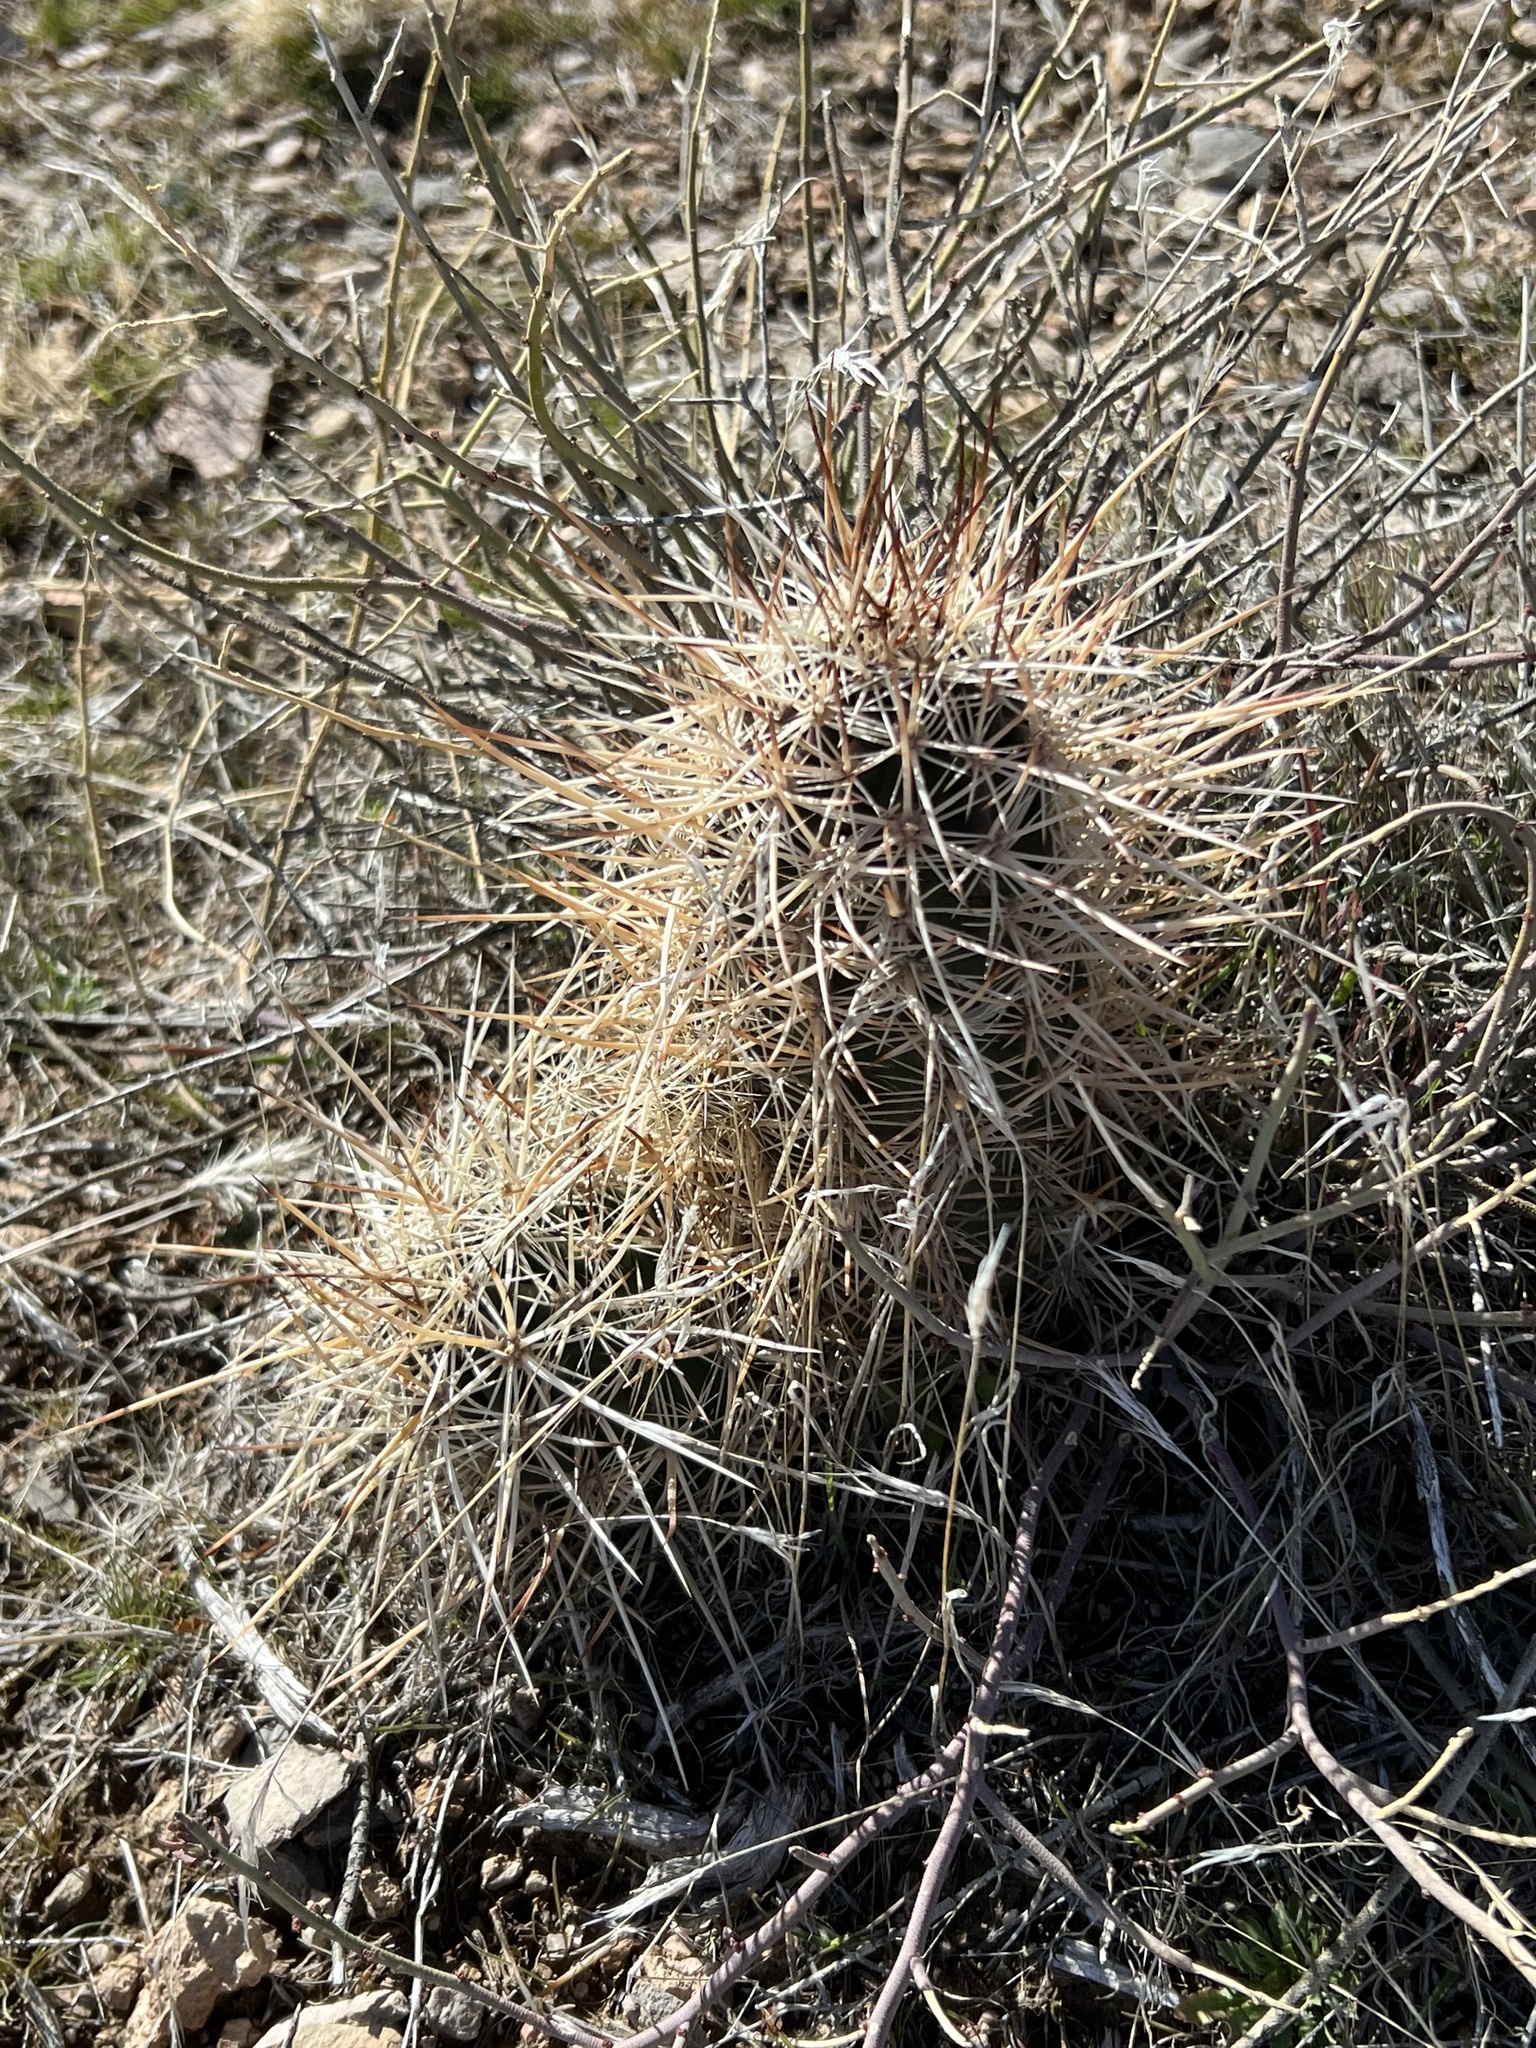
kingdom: Plantae
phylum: Tracheophyta
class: Magnoliopsida
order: Caryophyllales
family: Cactaceae
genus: Echinocereus
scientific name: Echinocereus engelmannii
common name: Engelmann's hedgehog cactus
